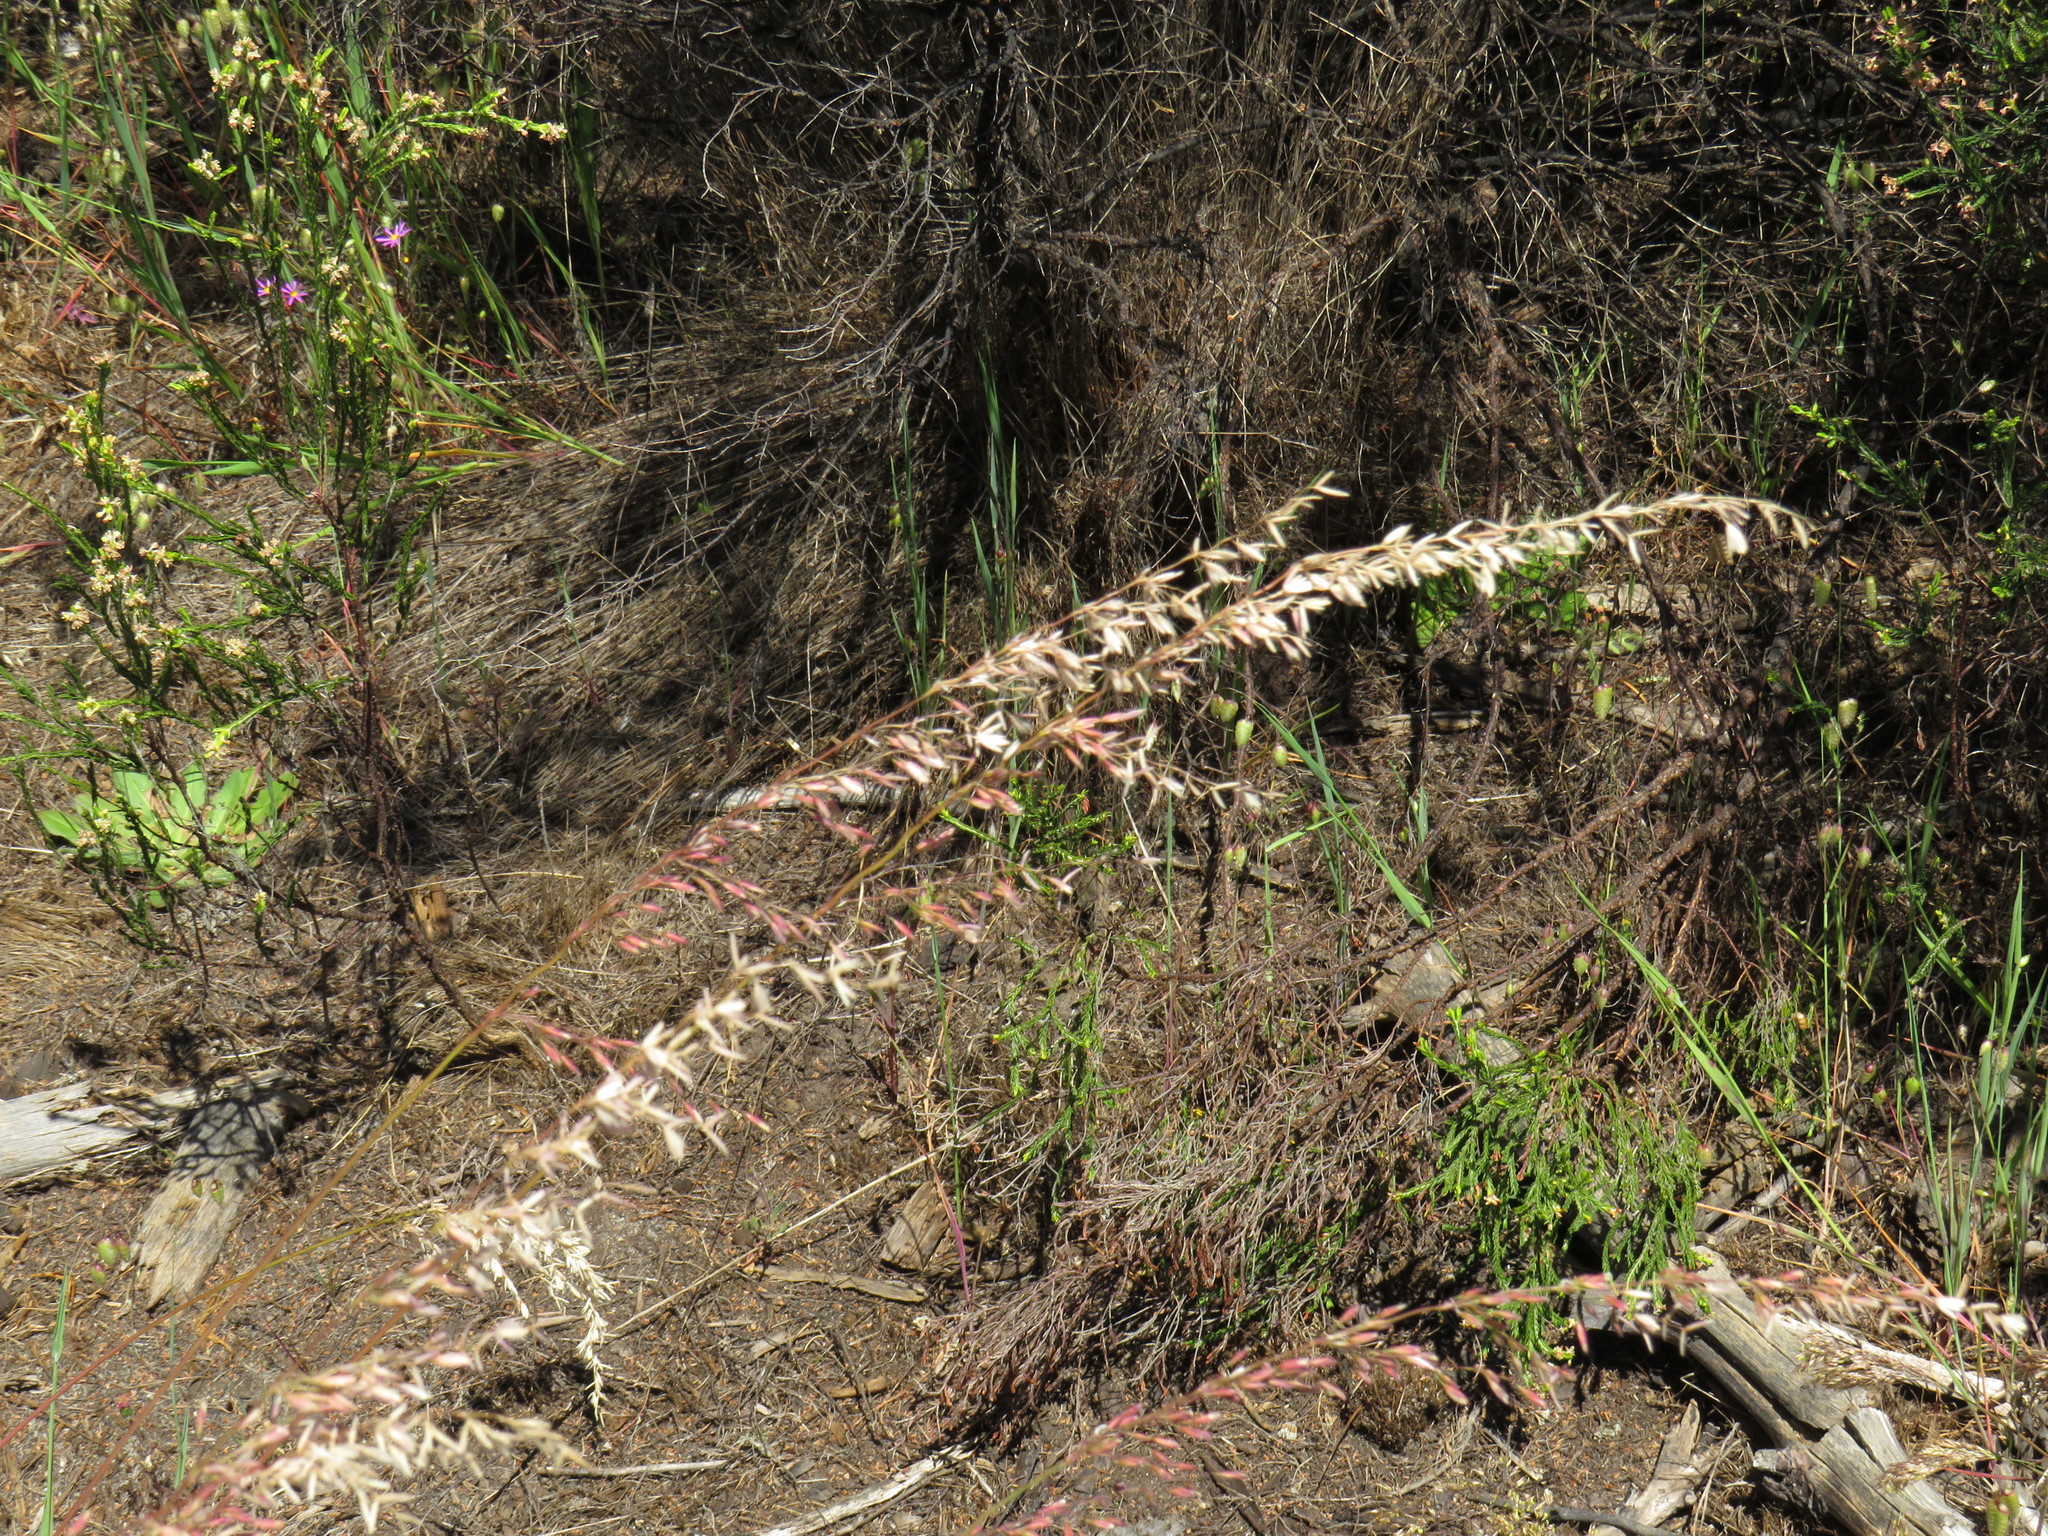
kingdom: Plantae
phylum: Tracheophyta
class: Liliopsida
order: Poales
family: Poaceae
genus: Ehrharta
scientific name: Ehrharta calycina
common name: Perennial veldtgrass
